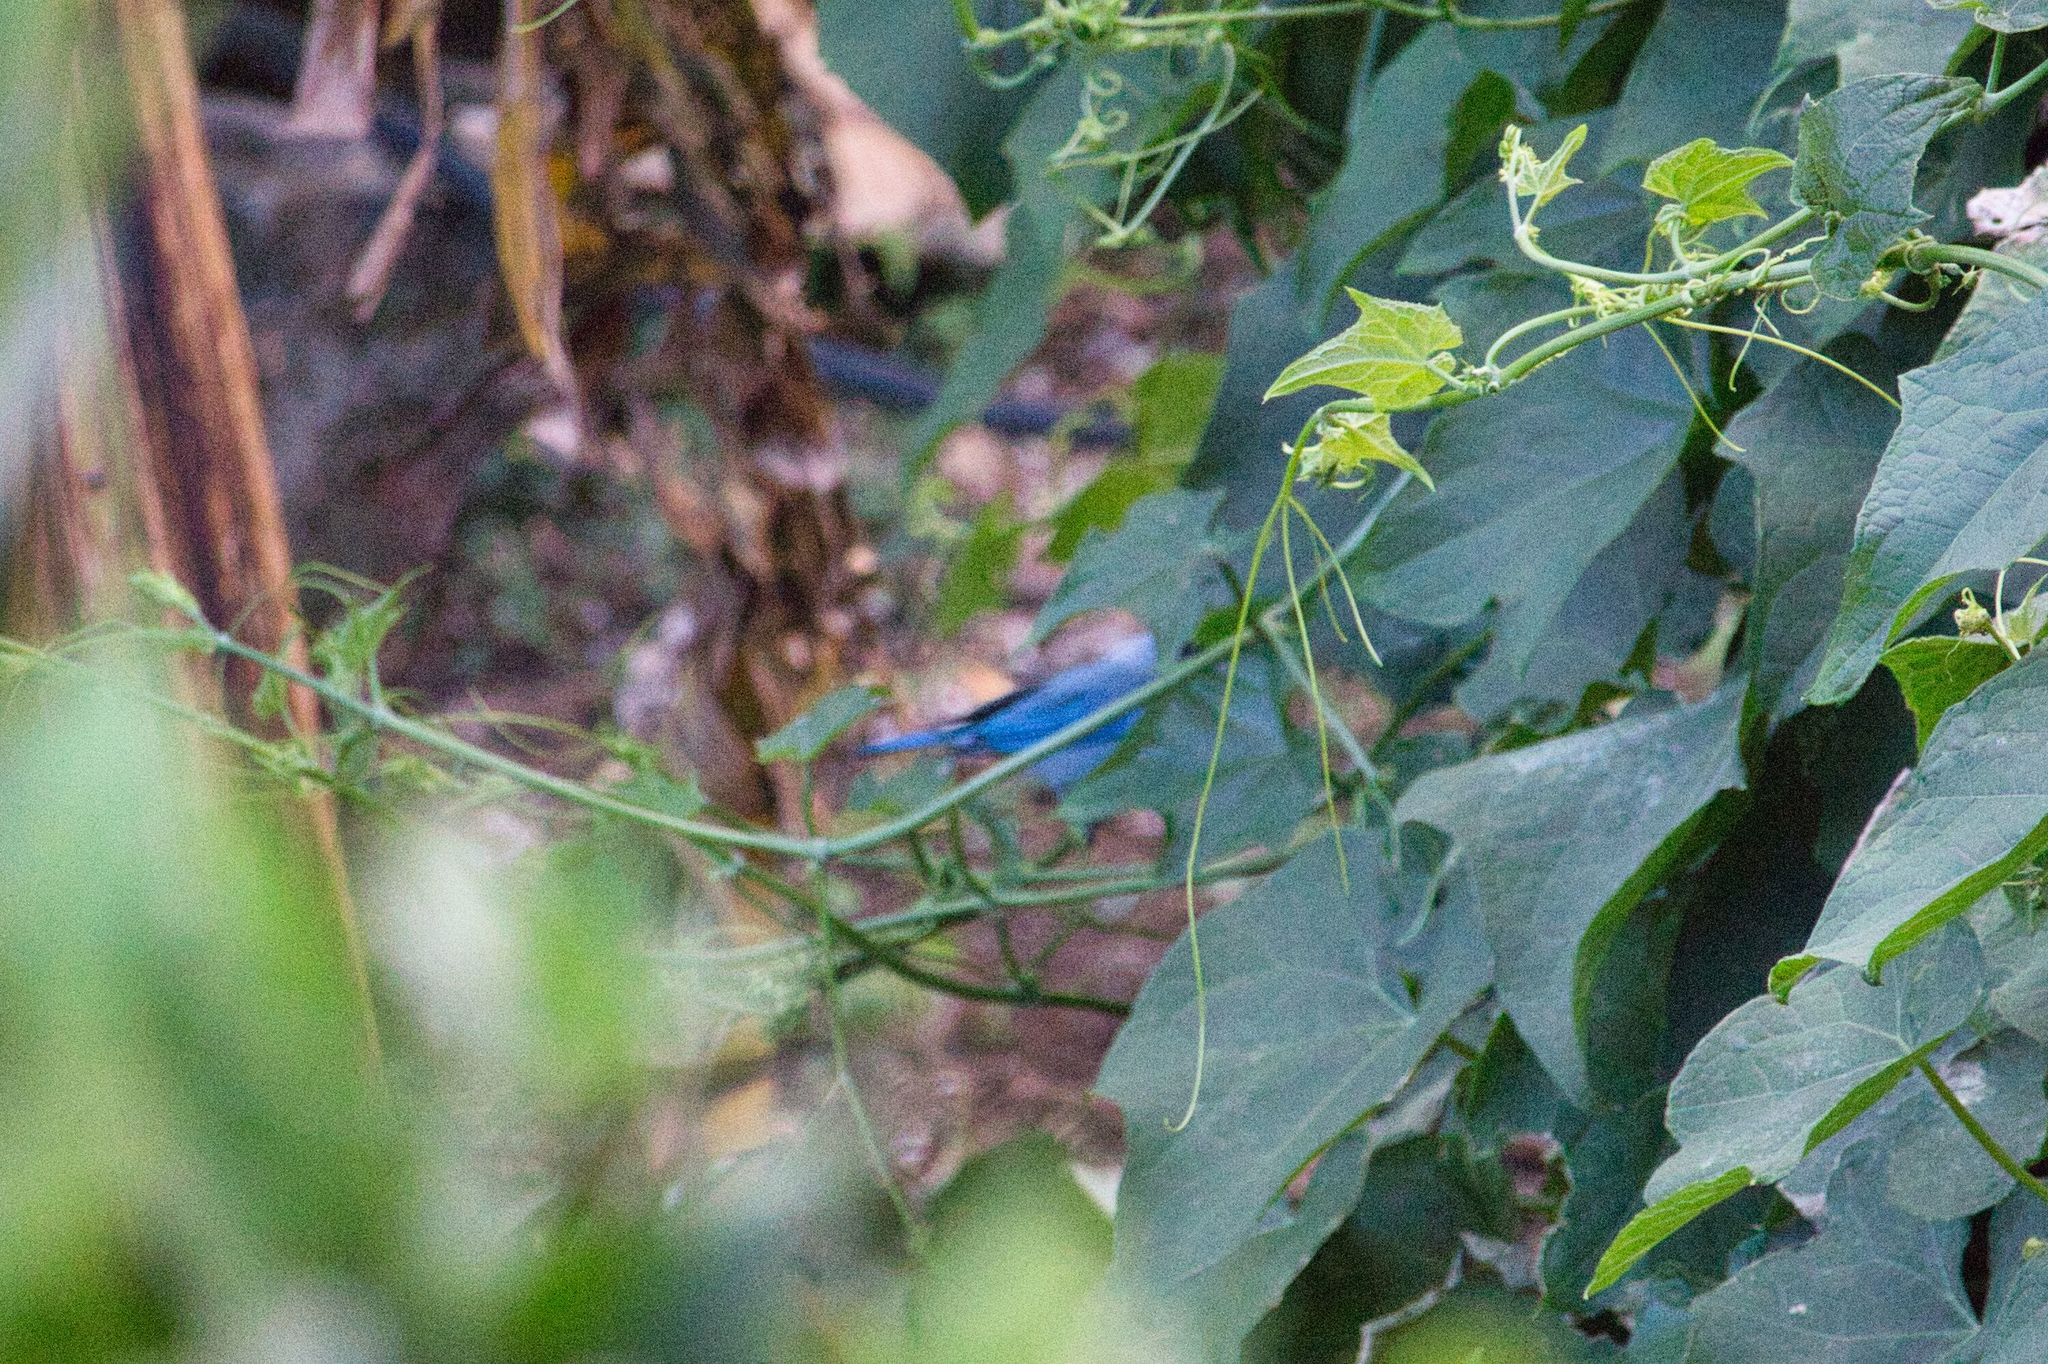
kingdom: Animalia
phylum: Chordata
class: Aves
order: Passeriformes
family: Thraupidae
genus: Thraupis
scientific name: Thraupis episcopus
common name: Blue-grey tanager
